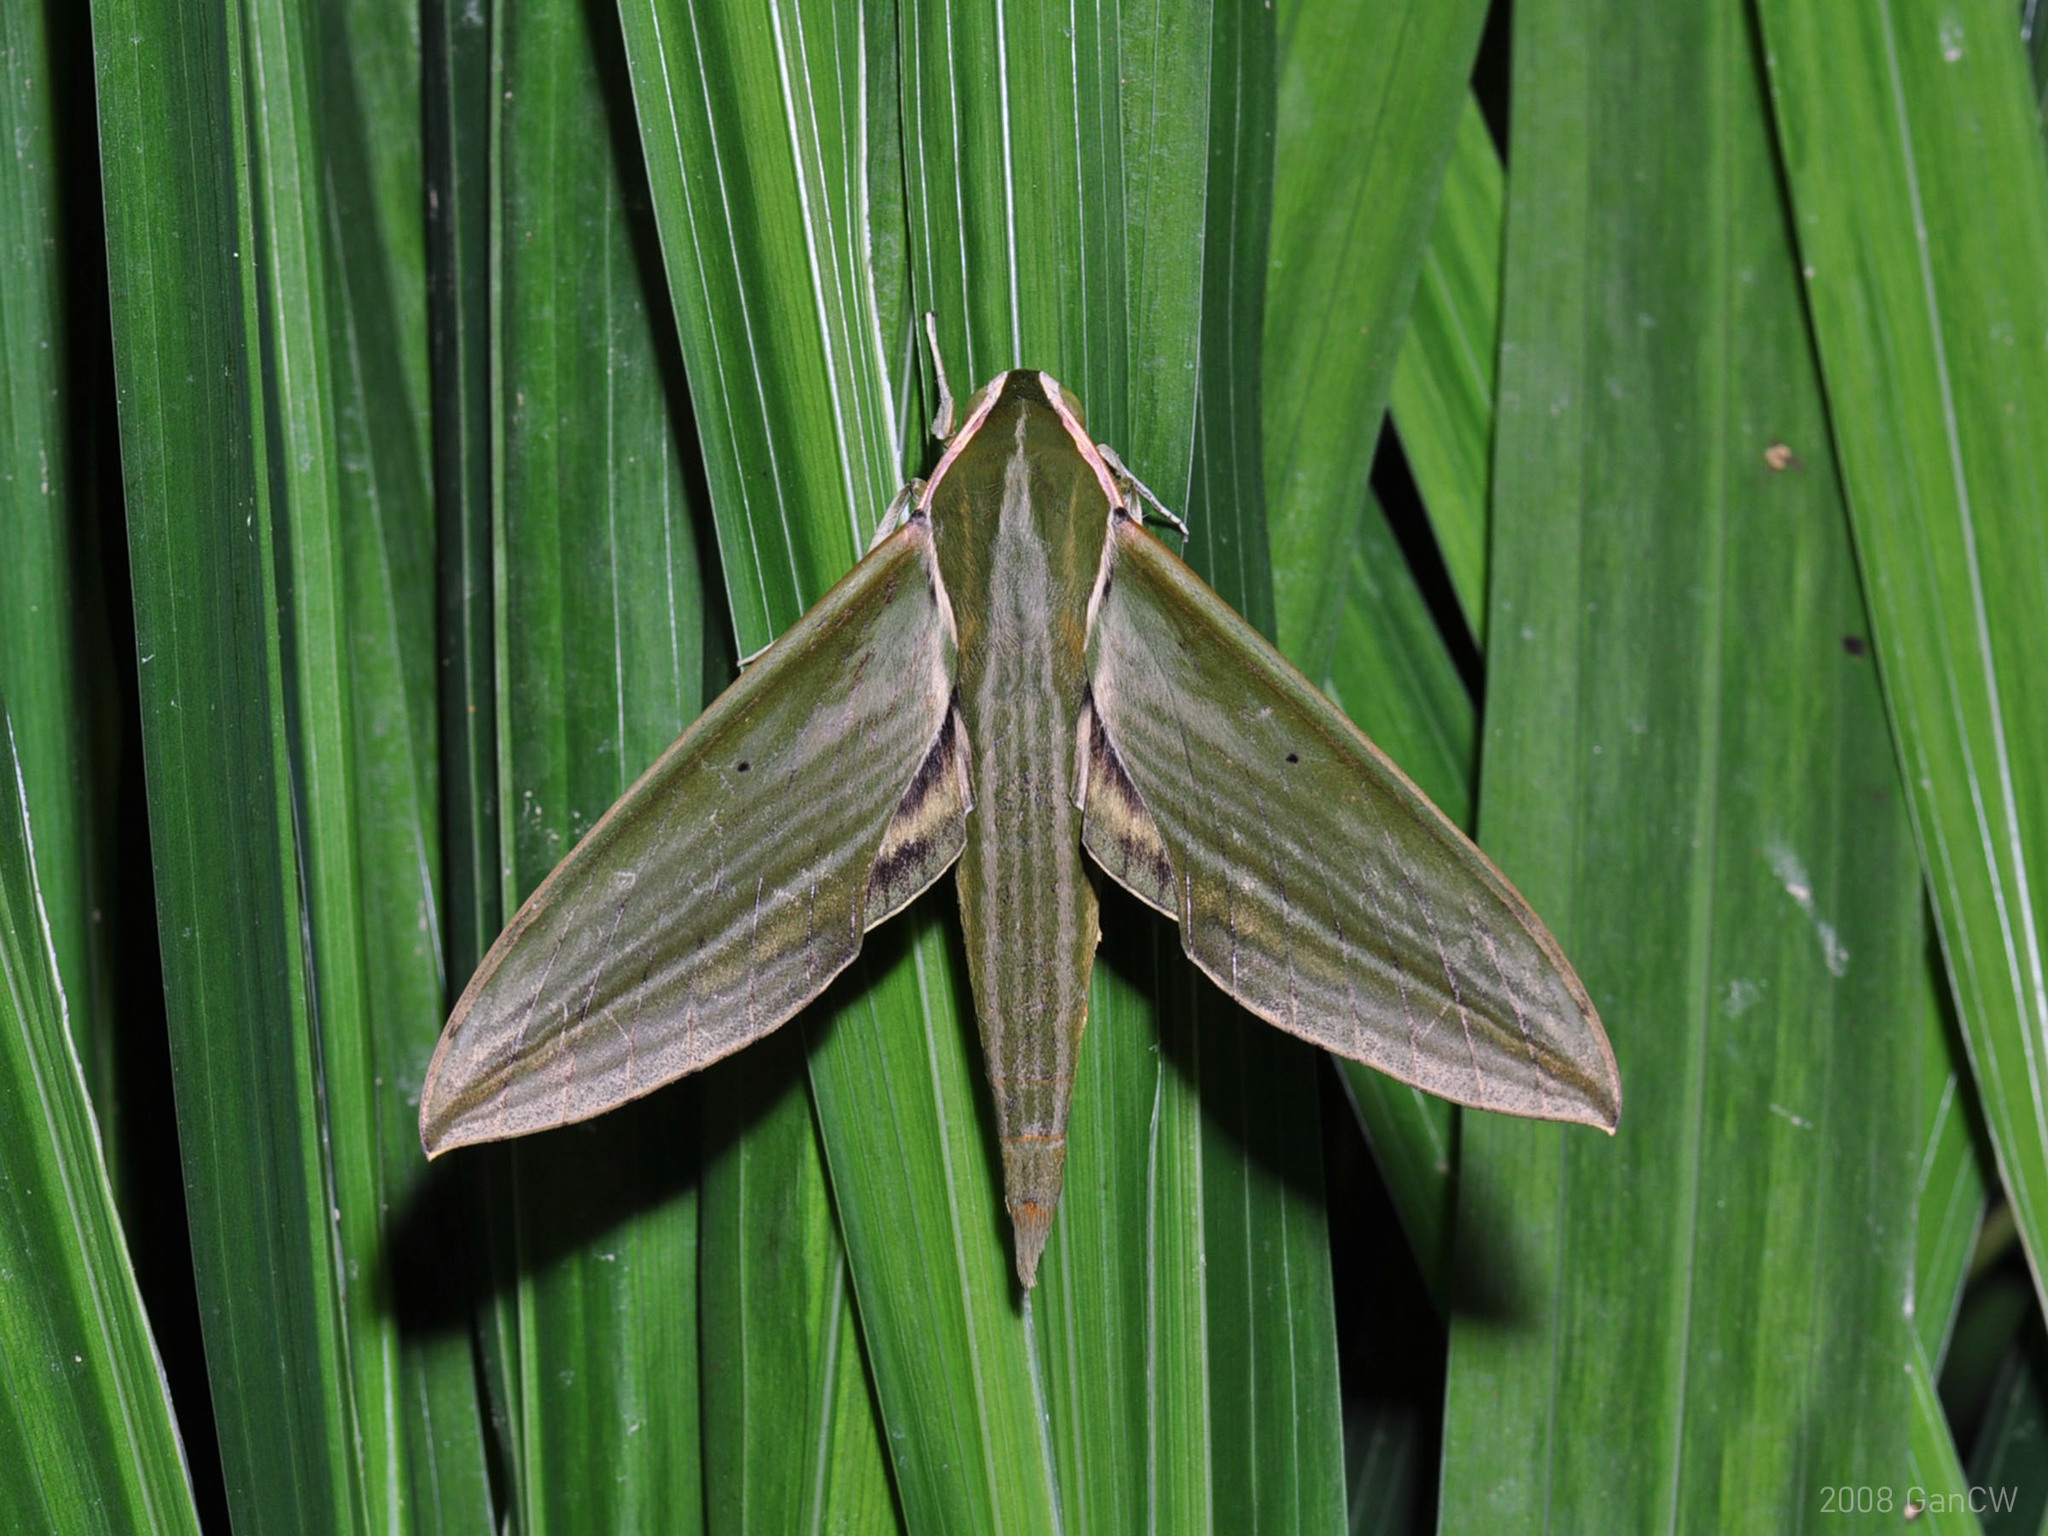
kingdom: Animalia
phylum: Arthropoda
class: Insecta
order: Lepidoptera
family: Sphingidae
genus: Cechetra
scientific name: Cechetra subangustata
